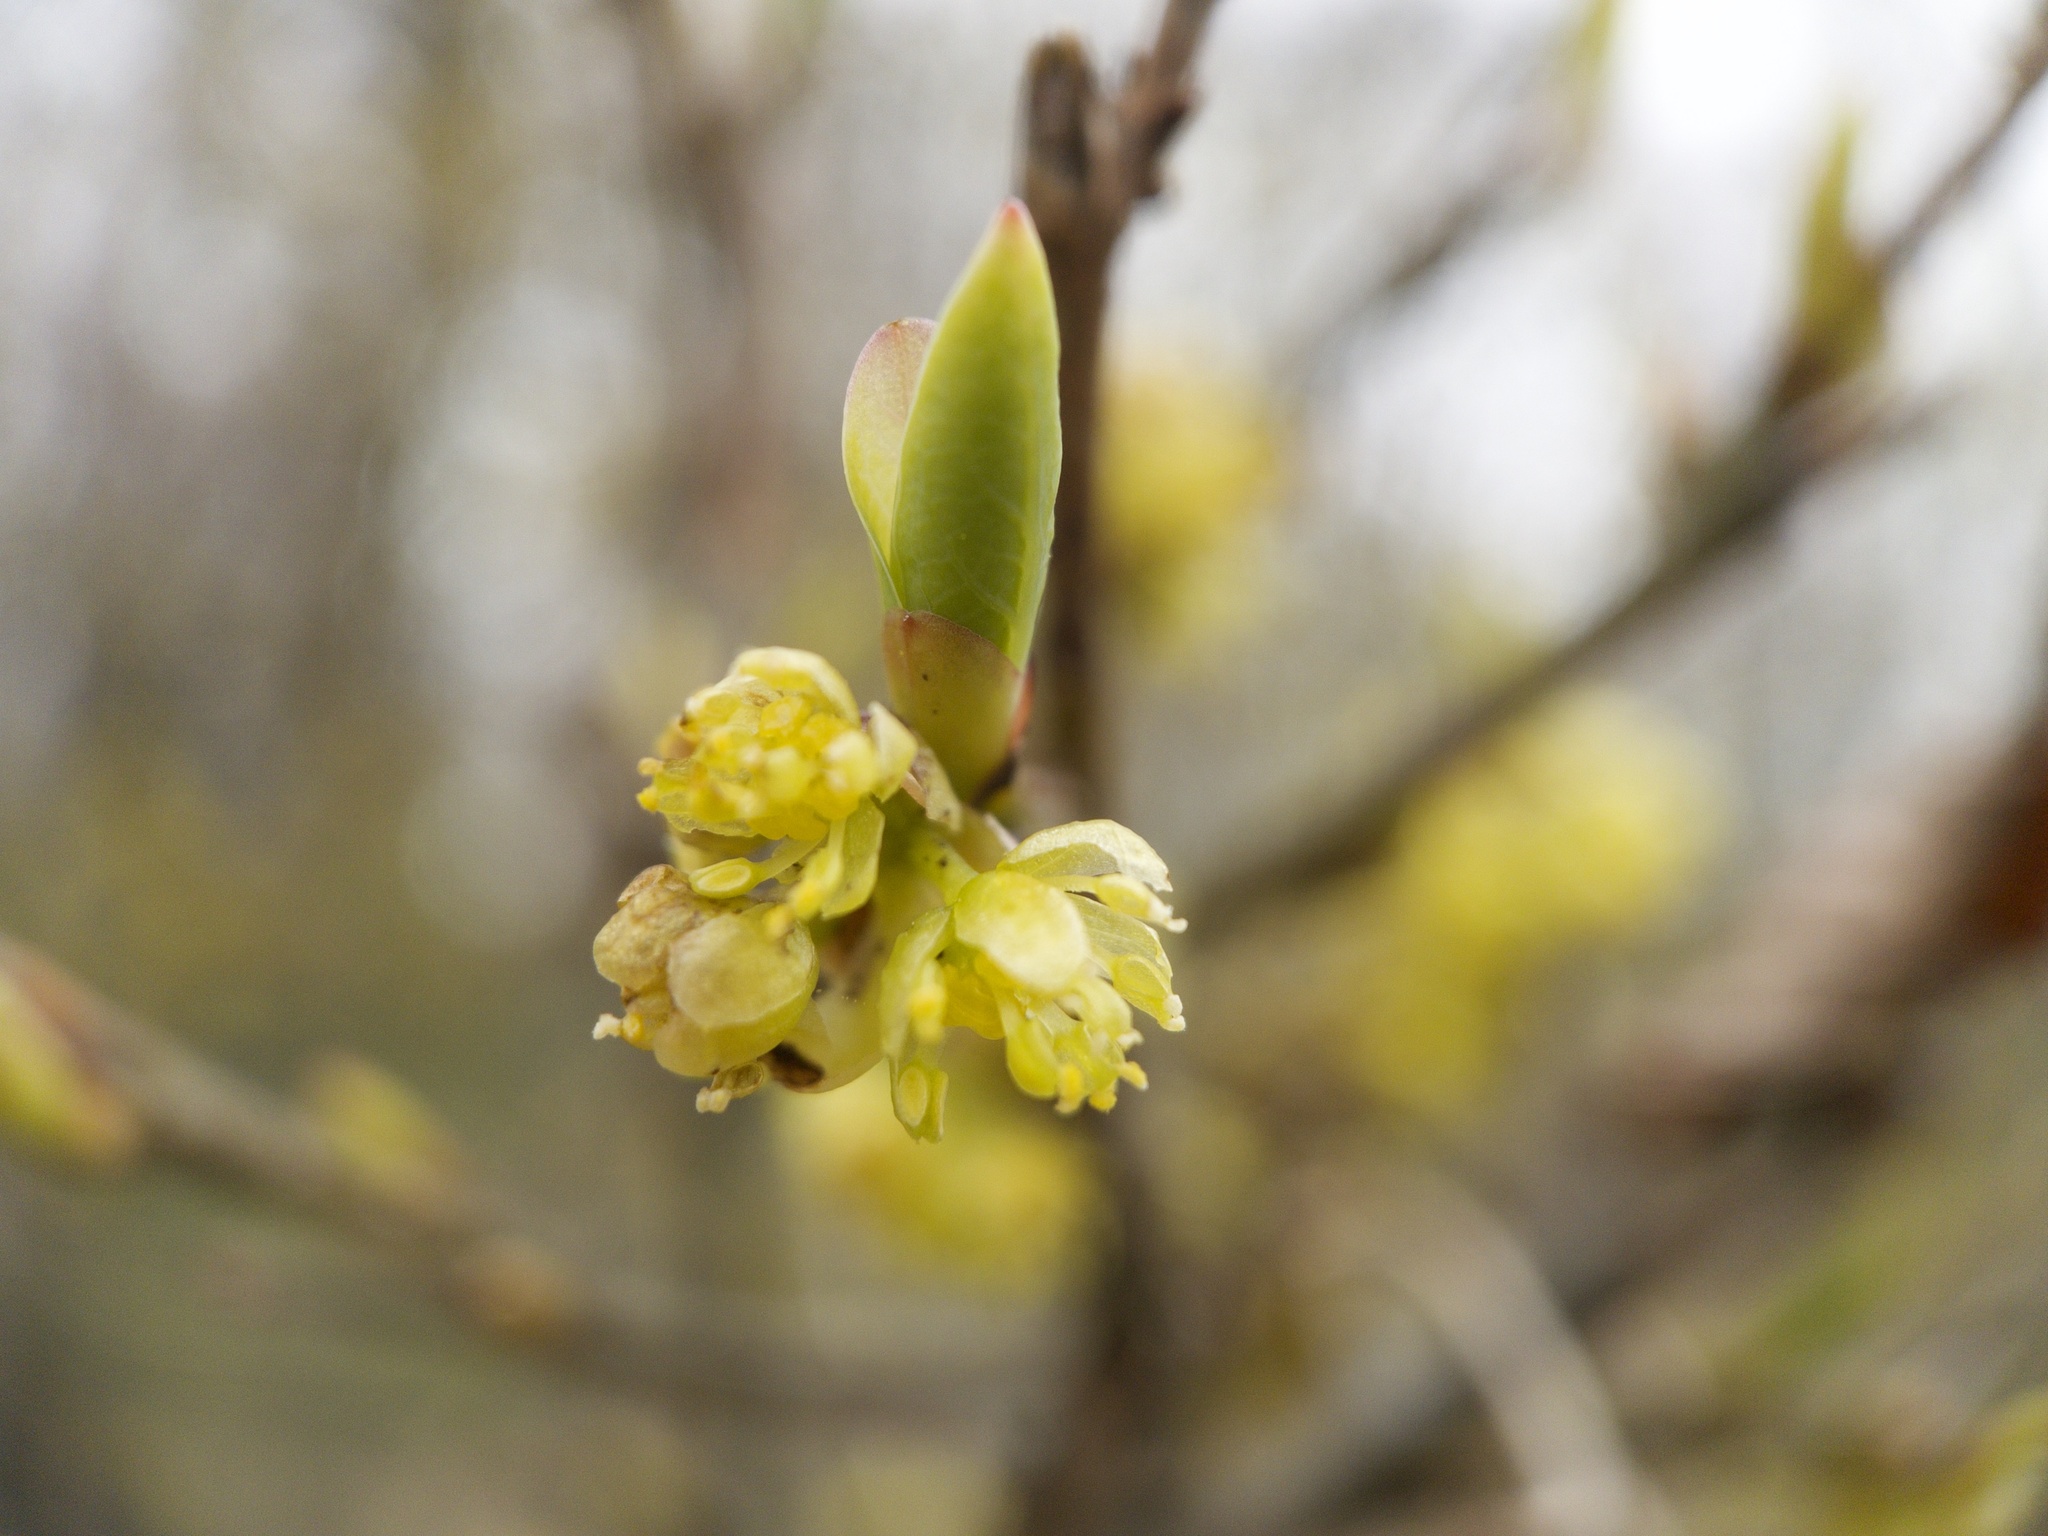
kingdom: Plantae
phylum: Tracheophyta
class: Magnoliopsida
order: Laurales
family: Lauraceae
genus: Lindera
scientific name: Lindera benzoin
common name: Spicebush
